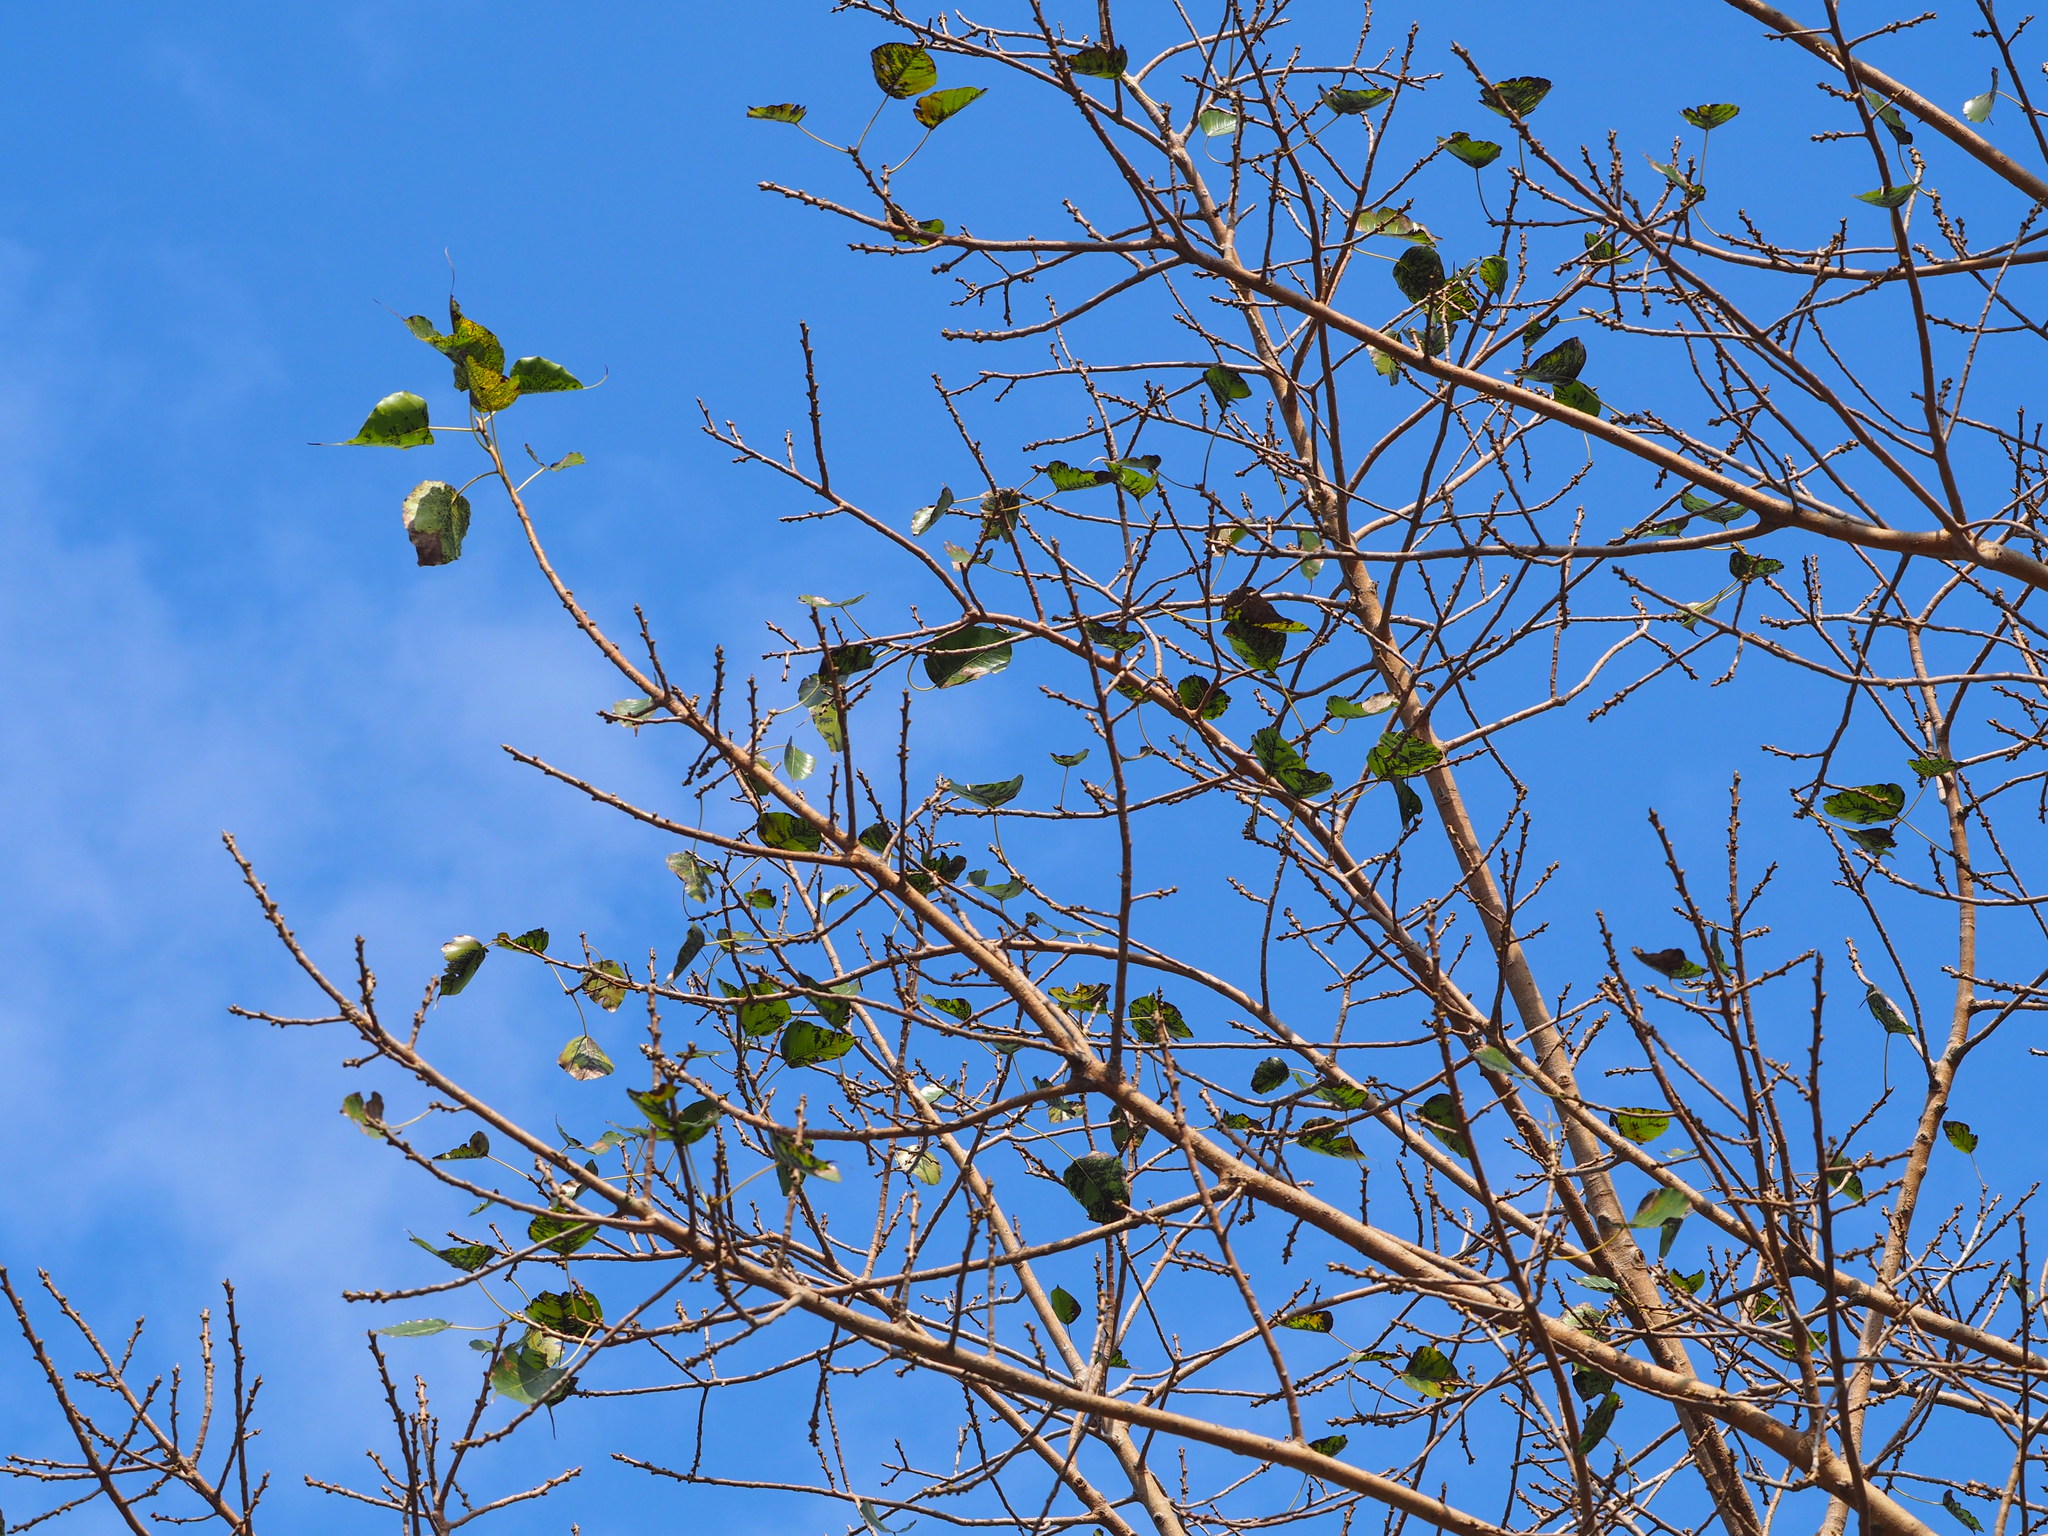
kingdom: Plantae
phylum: Tracheophyta
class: Magnoliopsida
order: Rosales
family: Moraceae
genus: Ficus
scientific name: Ficus religiosa
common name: Bodhi tree
